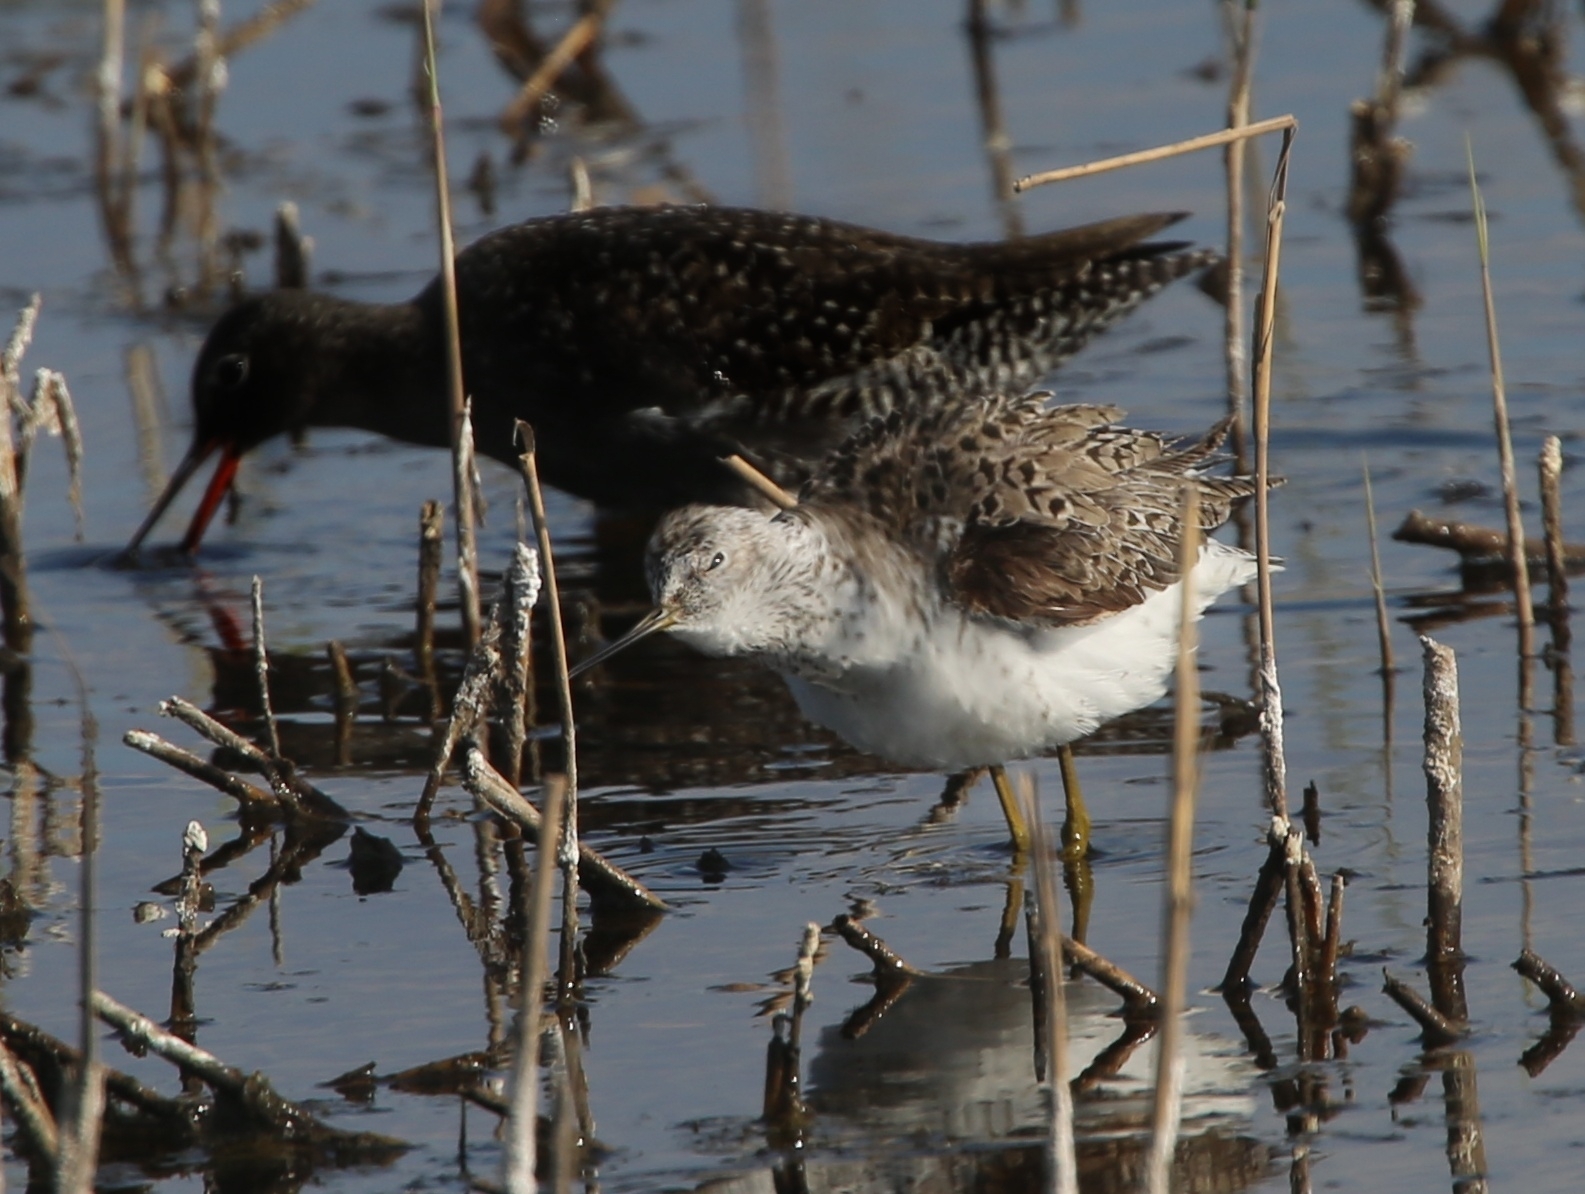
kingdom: Animalia
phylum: Chordata
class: Aves
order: Charadriiformes
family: Scolopacidae
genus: Tringa
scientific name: Tringa stagnatilis
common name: Marsh sandpiper
